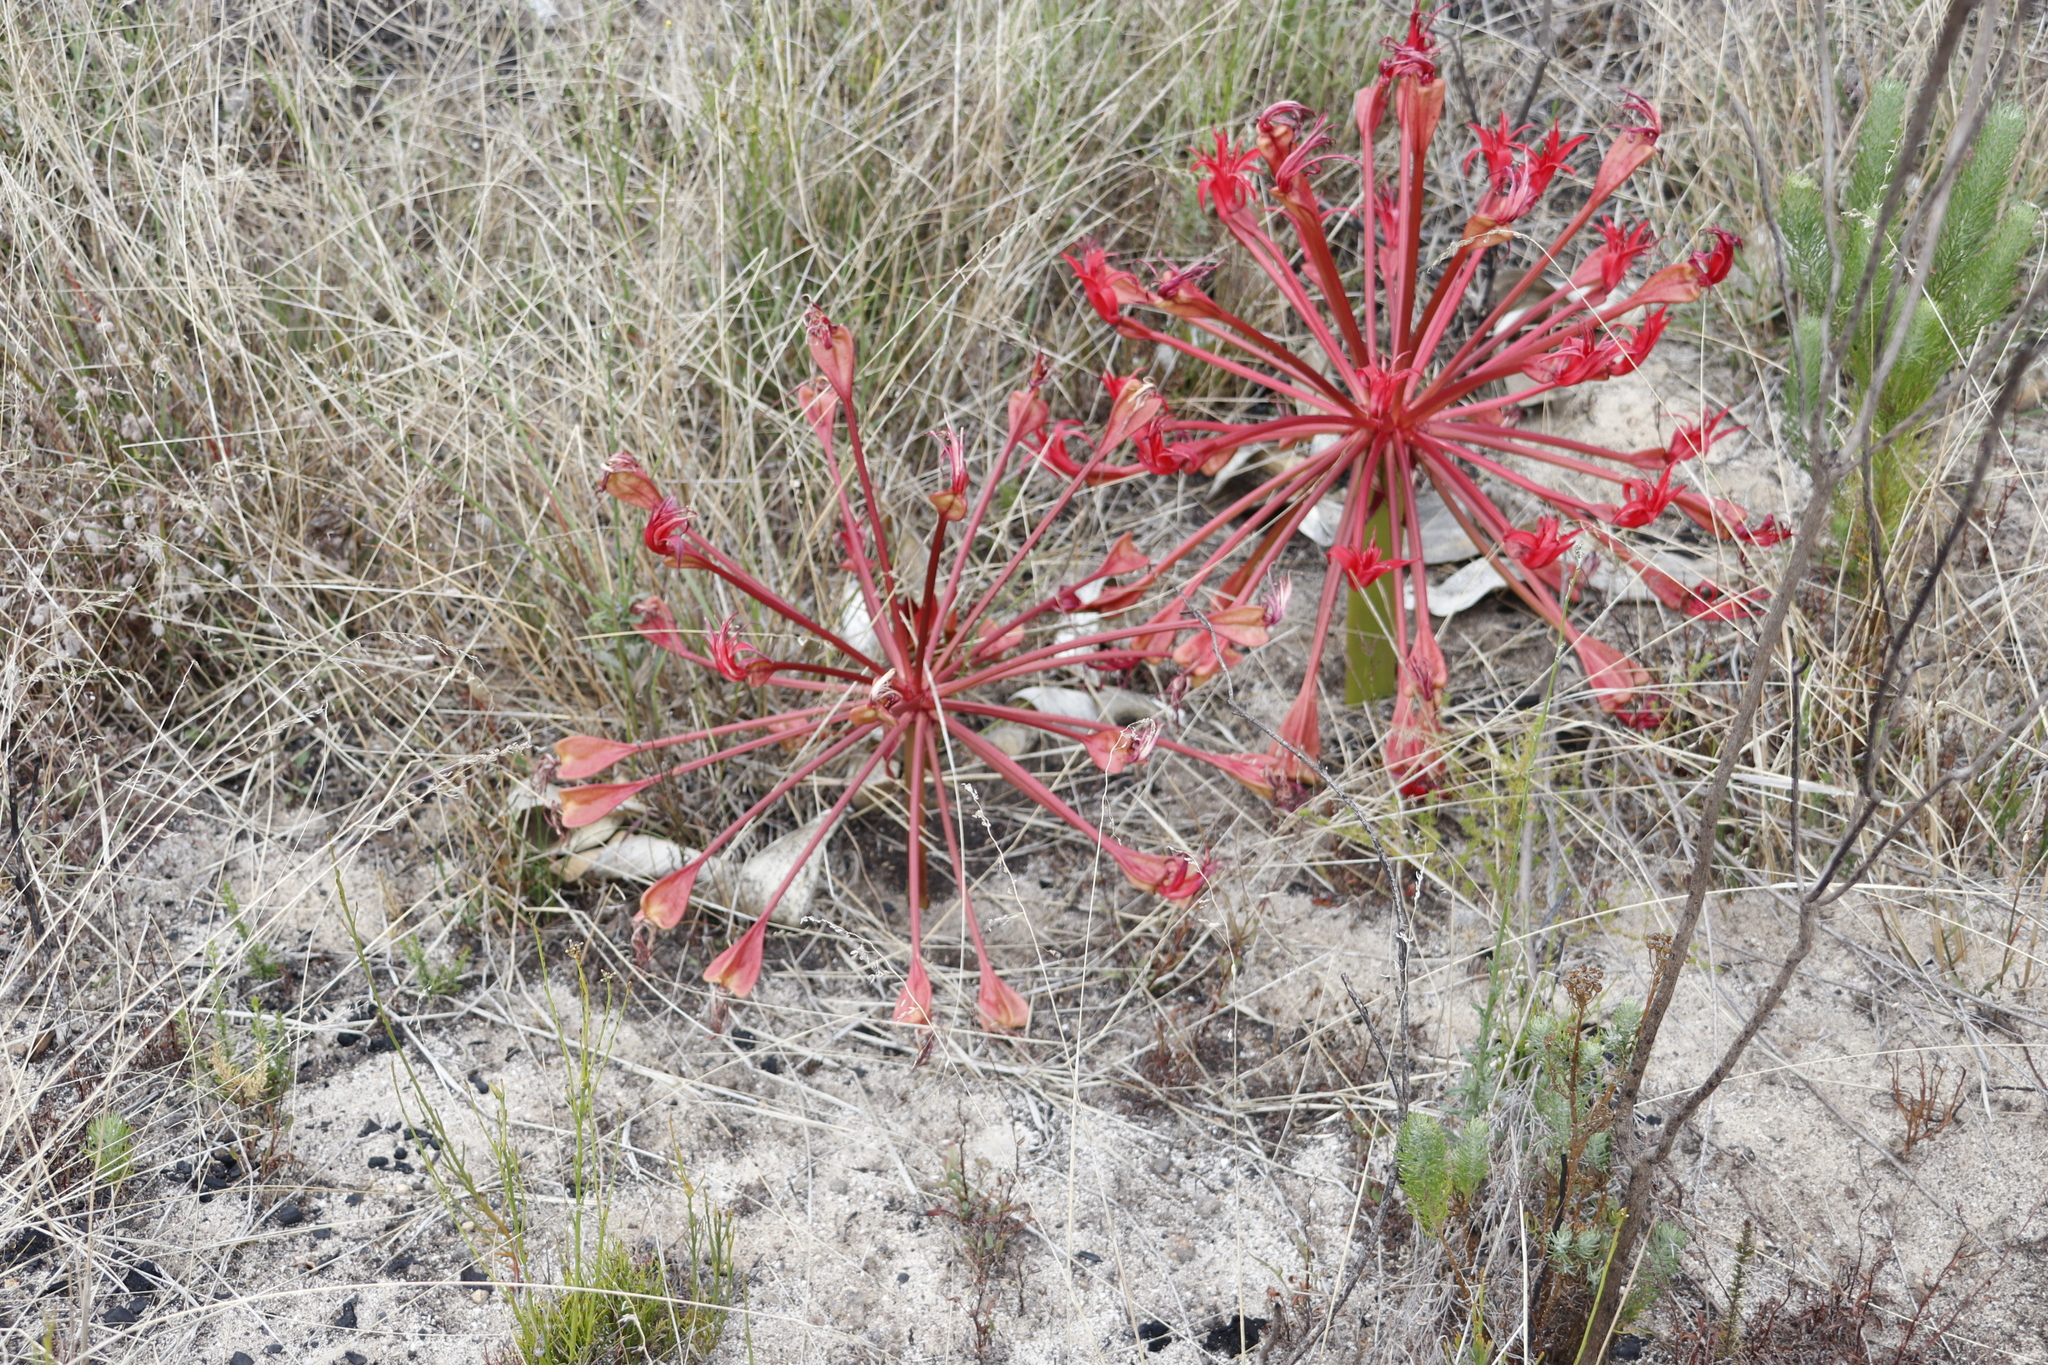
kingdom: Plantae
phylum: Tracheophyta
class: Liliopsida
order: Asparagales
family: Amaryllidaceae
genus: Brunsvigia
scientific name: Brunsvigia orientalis
